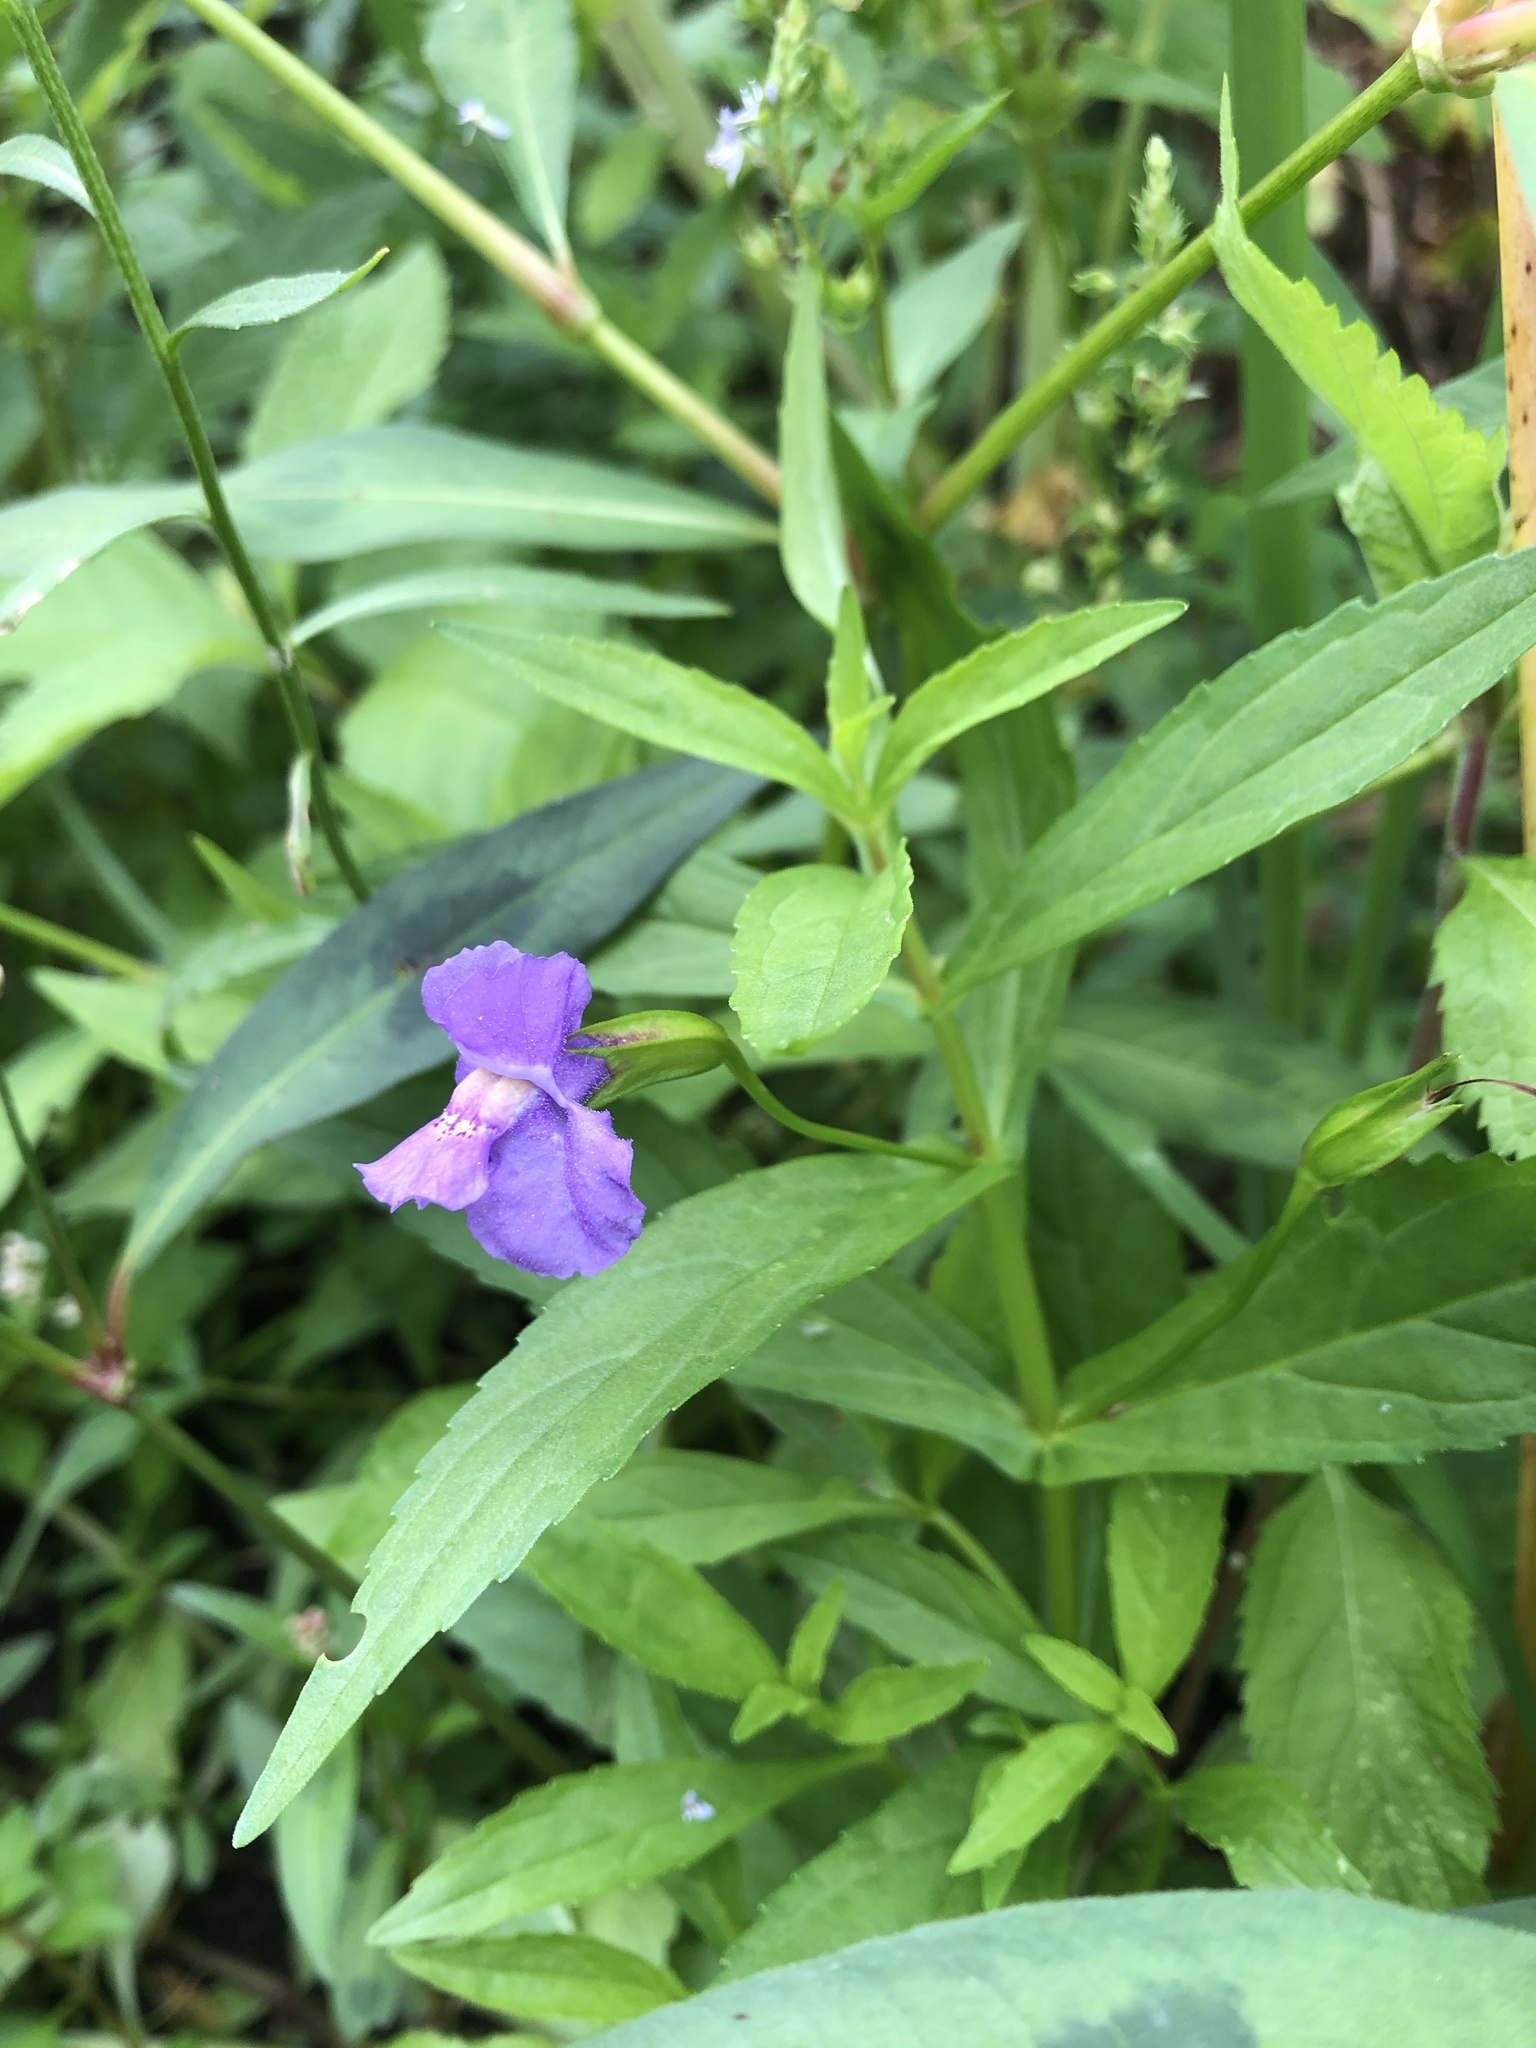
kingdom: Plantae
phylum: Tracheophyta
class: Magnoliopsida
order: Lamiales
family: Phrymaceae
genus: Mimulus
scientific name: Mimulus ringens
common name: Allegheny monkeyflower
